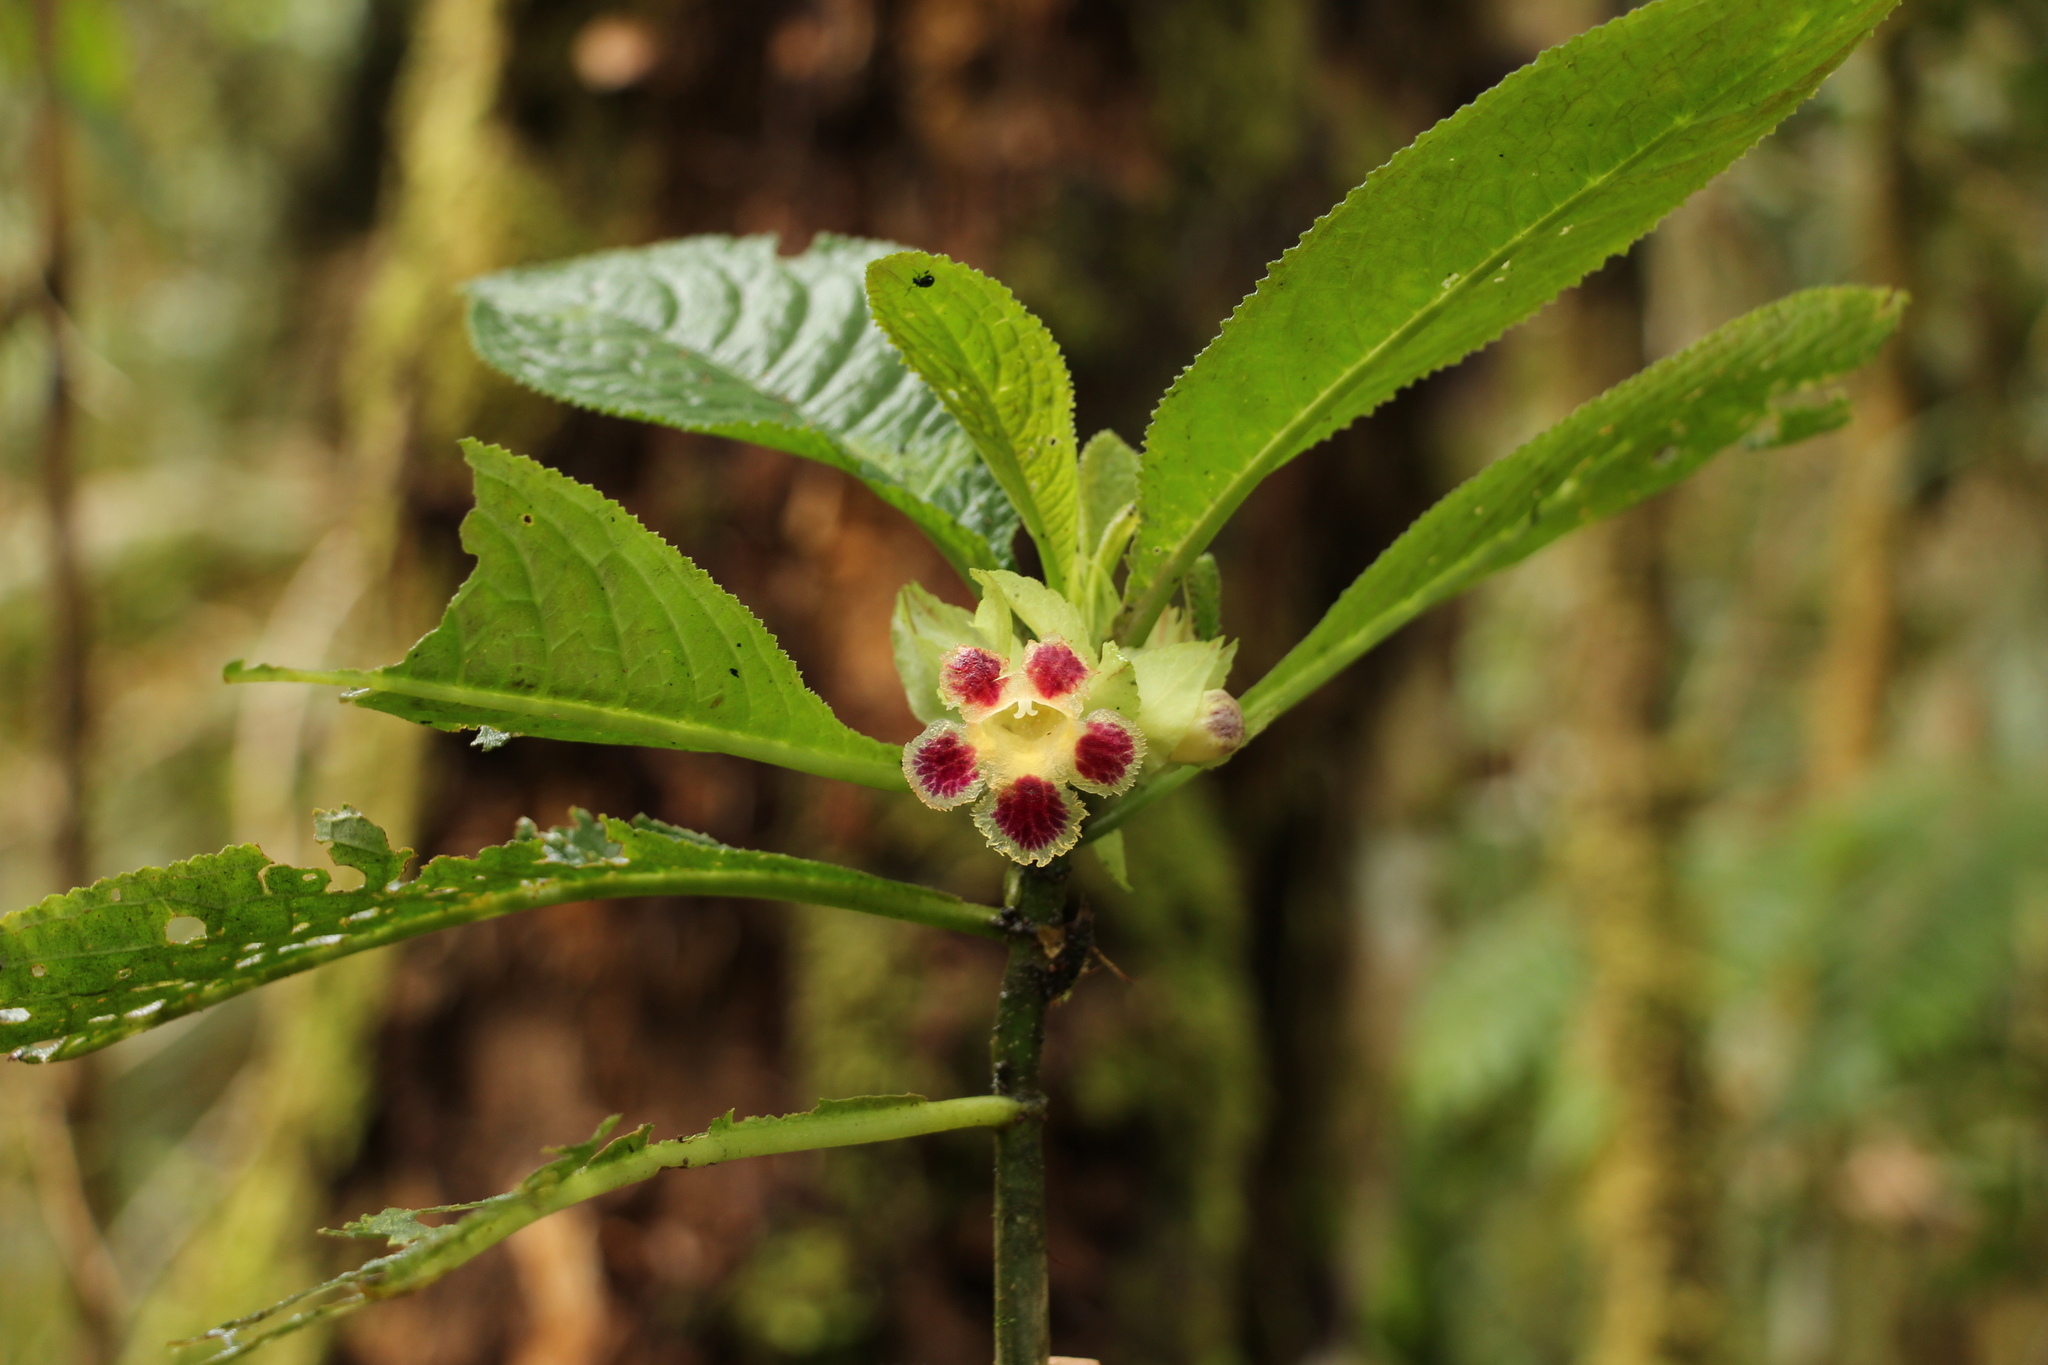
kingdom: Plantae
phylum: Tracheophyta
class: Magnoliopsida
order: Lamiales
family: Gesneriaceae
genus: Drymonia
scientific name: Drymonia foliacea
